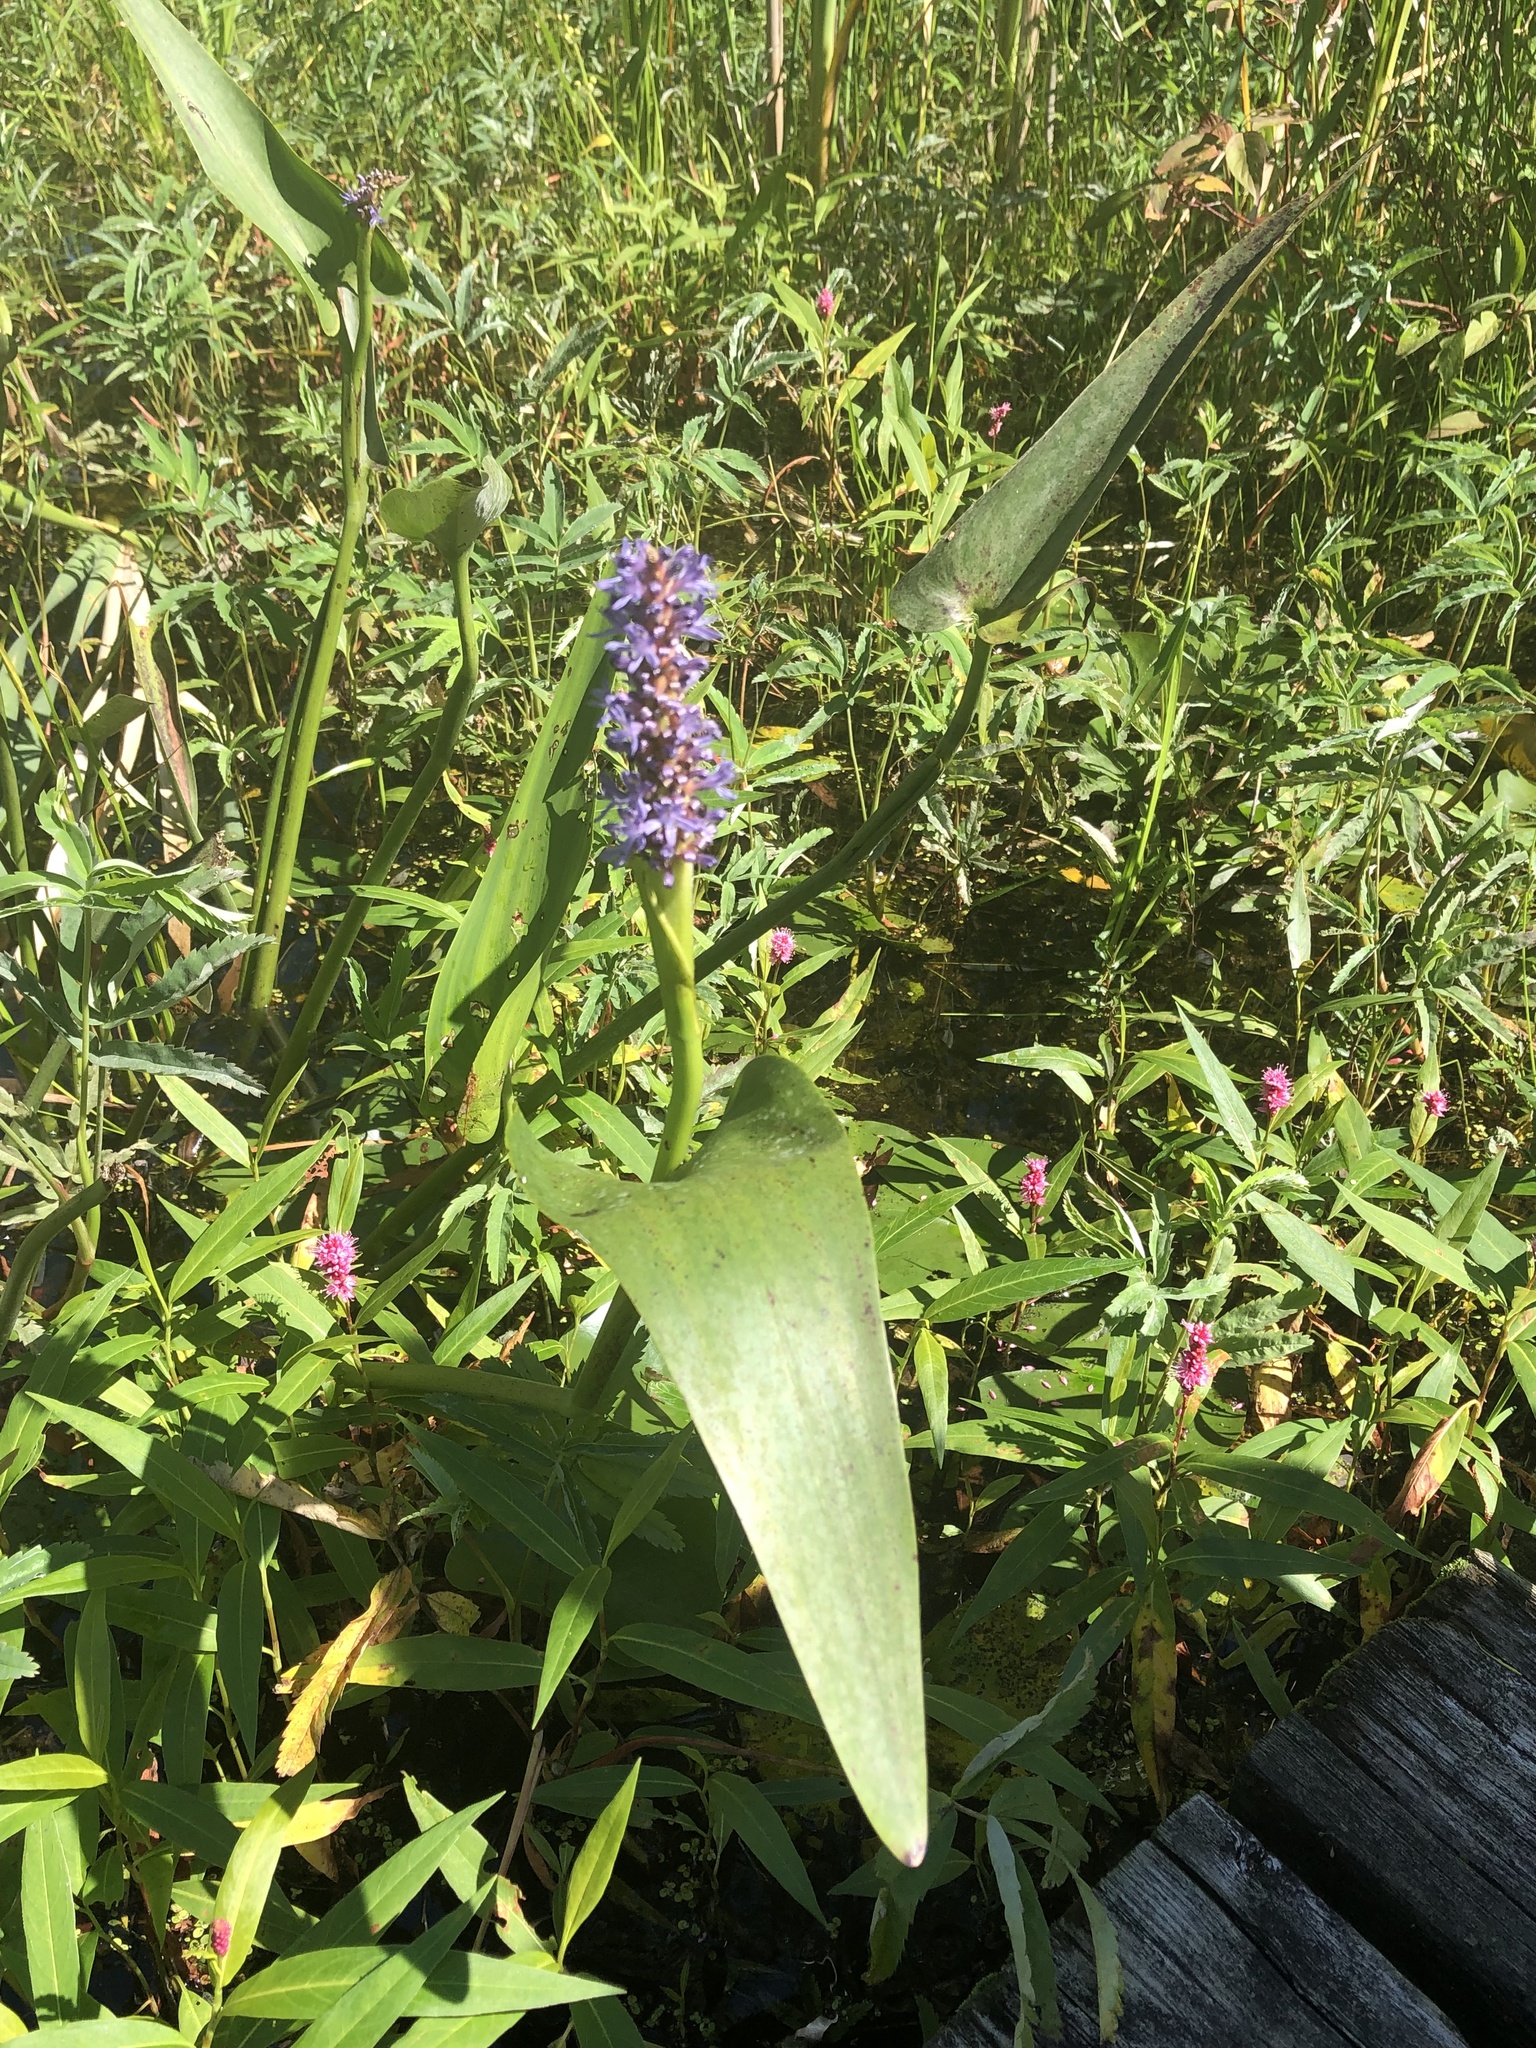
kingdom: Plantae
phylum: Tracheophyta
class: Liliopsida
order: Commelinales
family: Pontederiaceae
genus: Pontederia
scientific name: Pontederia cordata
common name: Pickerelweed
